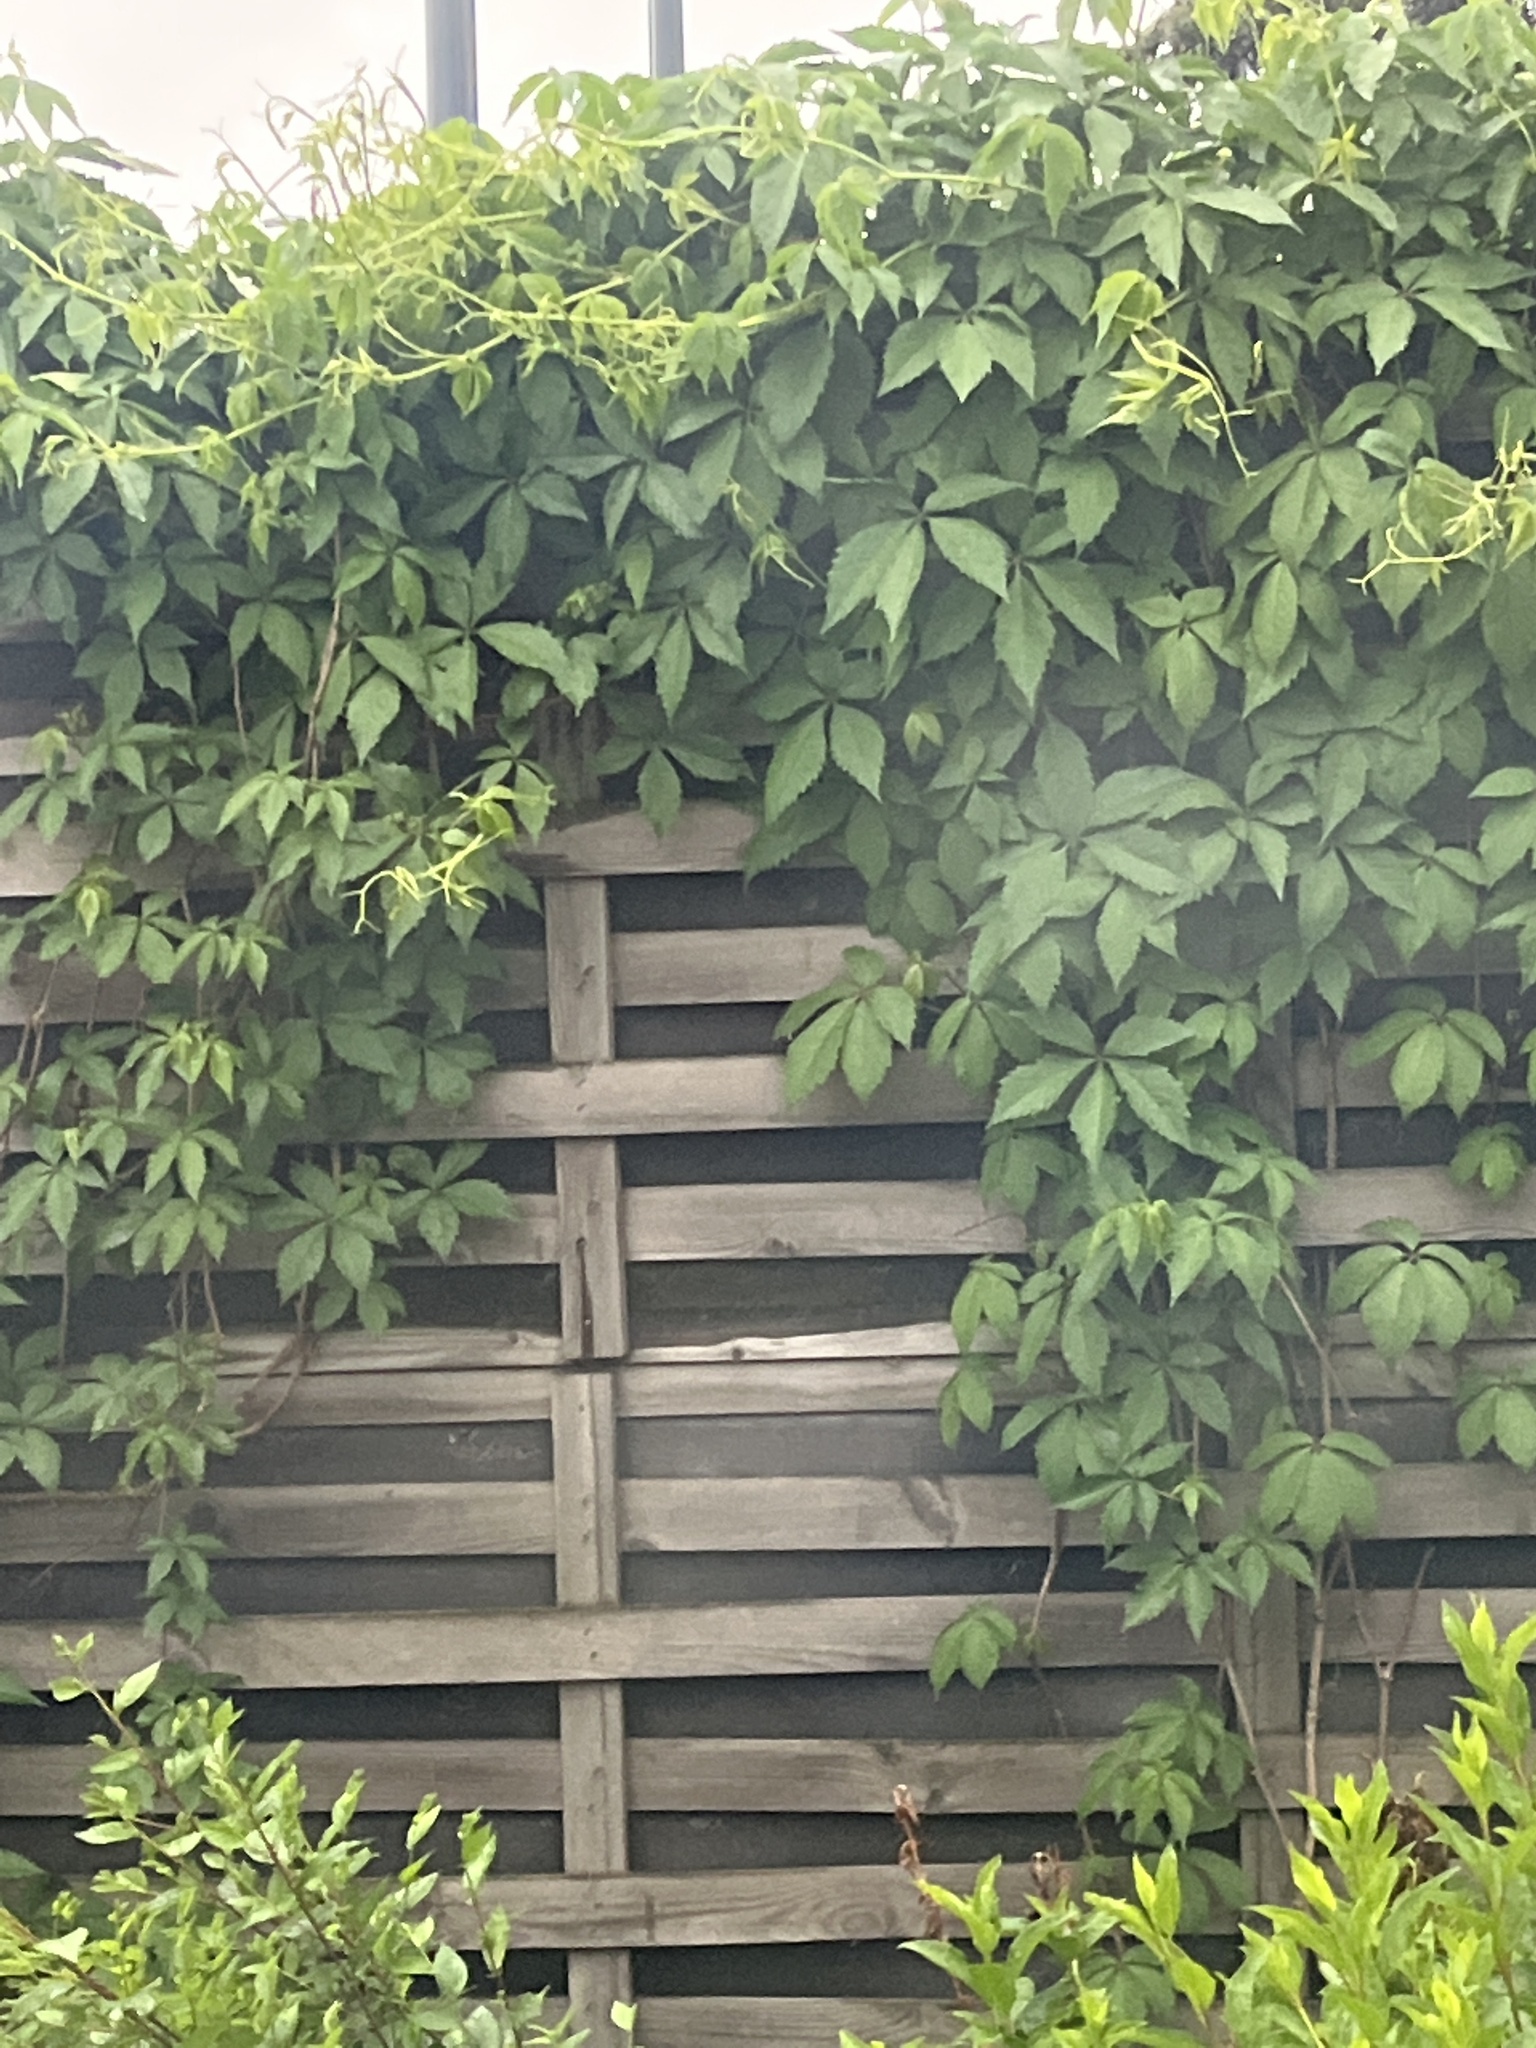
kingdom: Plantae
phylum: Tracheophyta
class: Magnoliopsida
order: Vitales
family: Vitaceae
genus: Parthenocissus
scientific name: Parthenocissus quinquefolia
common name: Virginia-creeper
